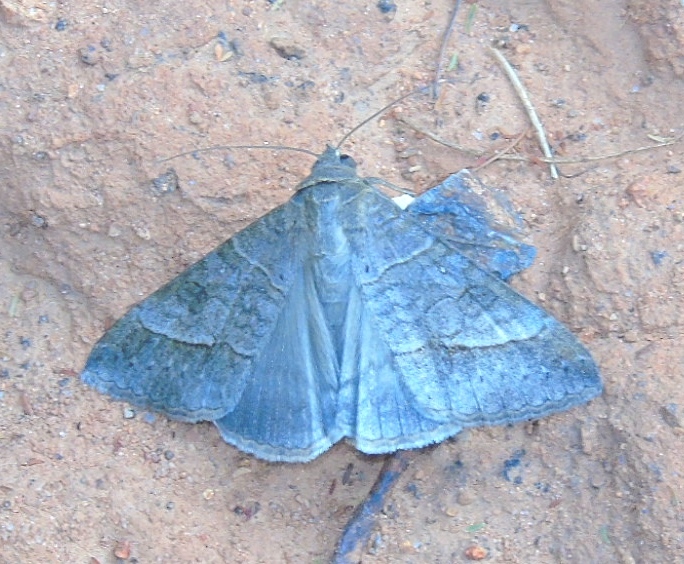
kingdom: Animalia
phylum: Arthropoda
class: Insecta
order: Lepidoptera
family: Erebidae
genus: Mocis
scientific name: Mocis
